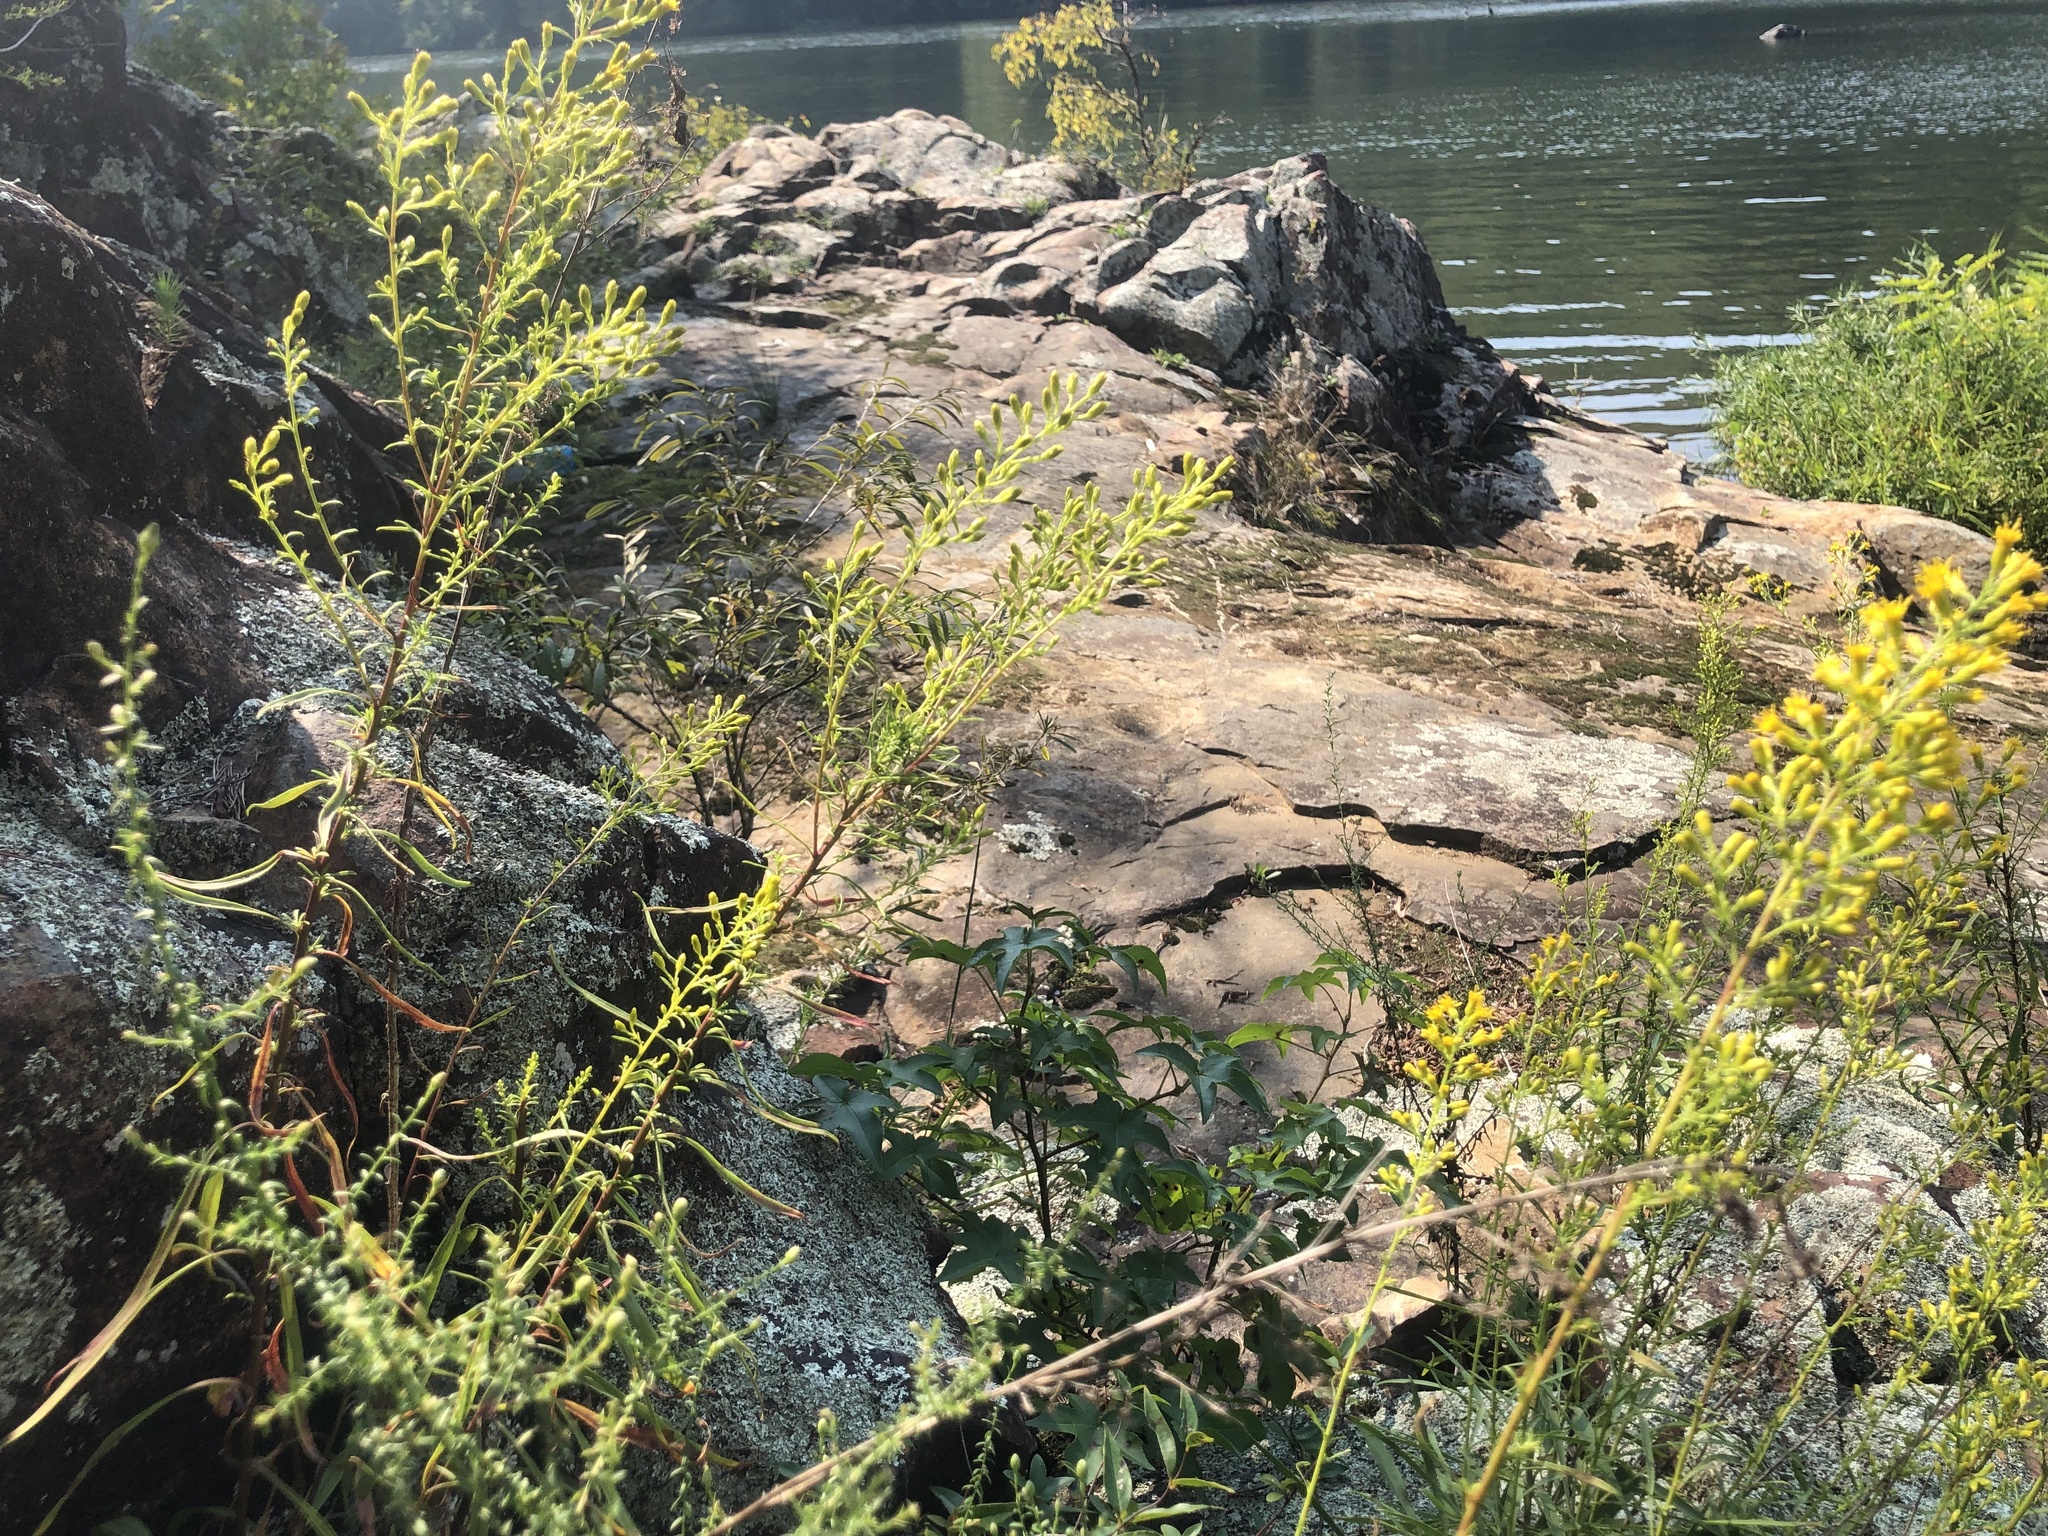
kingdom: Plantae
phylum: Tracheophyta
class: Magnoliopsida
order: Asterales
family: Asteraceae
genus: Solidago
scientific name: Solidago plumosa
